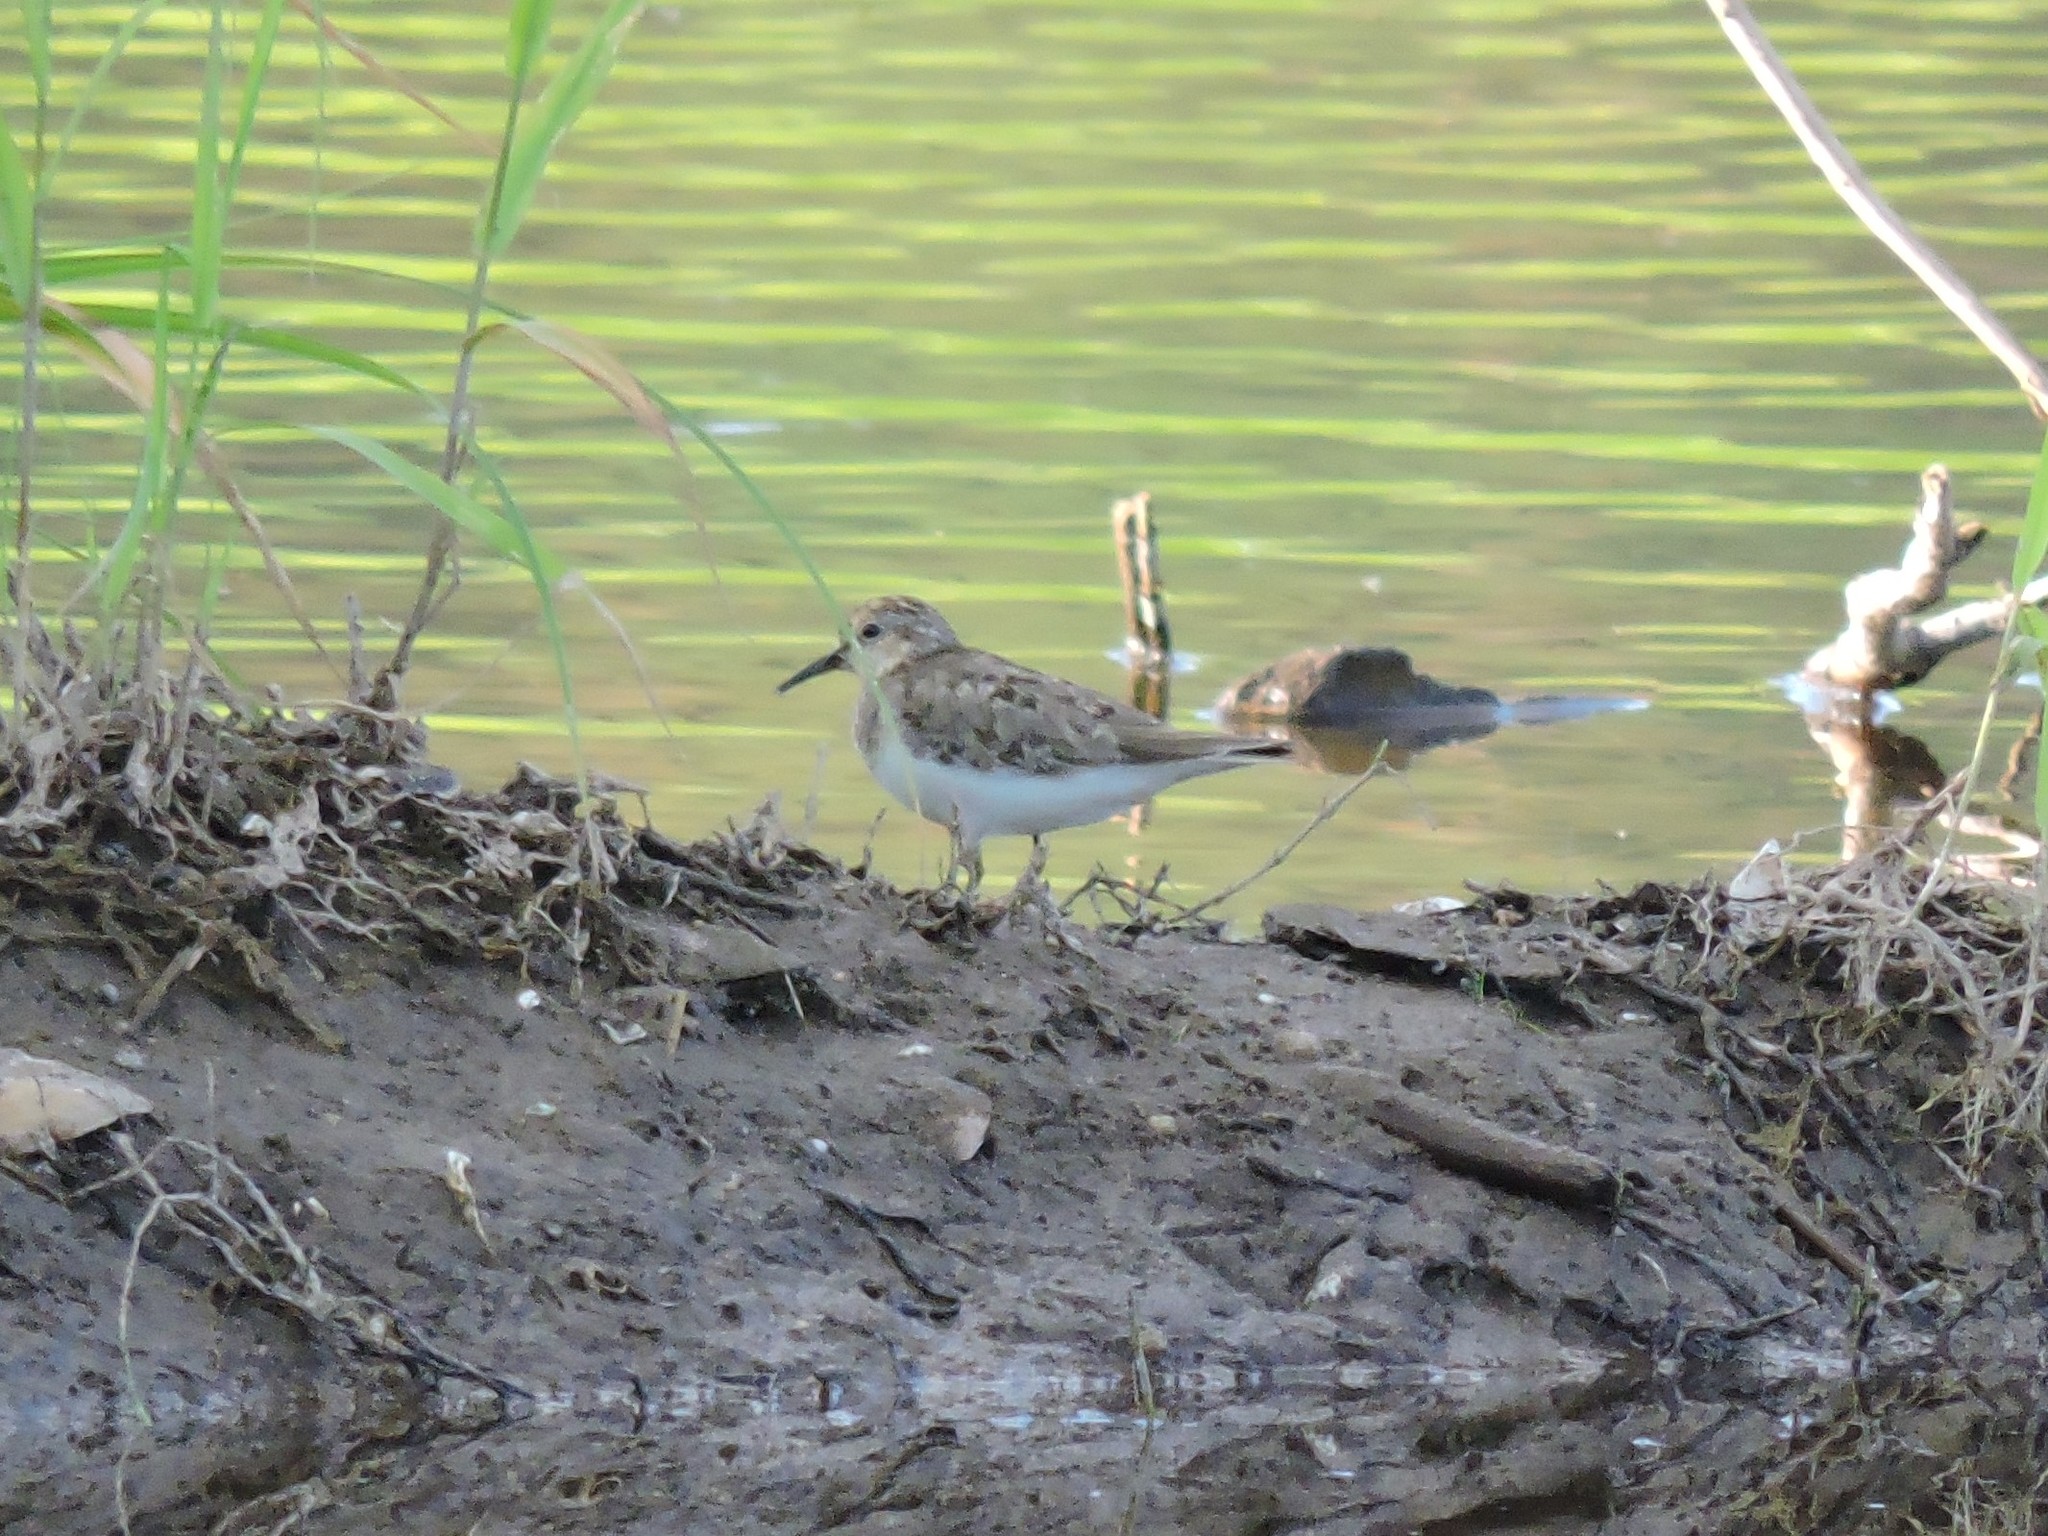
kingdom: Animalia
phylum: Chordata
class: Aves
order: Charadriiformes
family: Scolopacidae
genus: Calidris
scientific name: Calidris temminckii
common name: Temminck's stint
